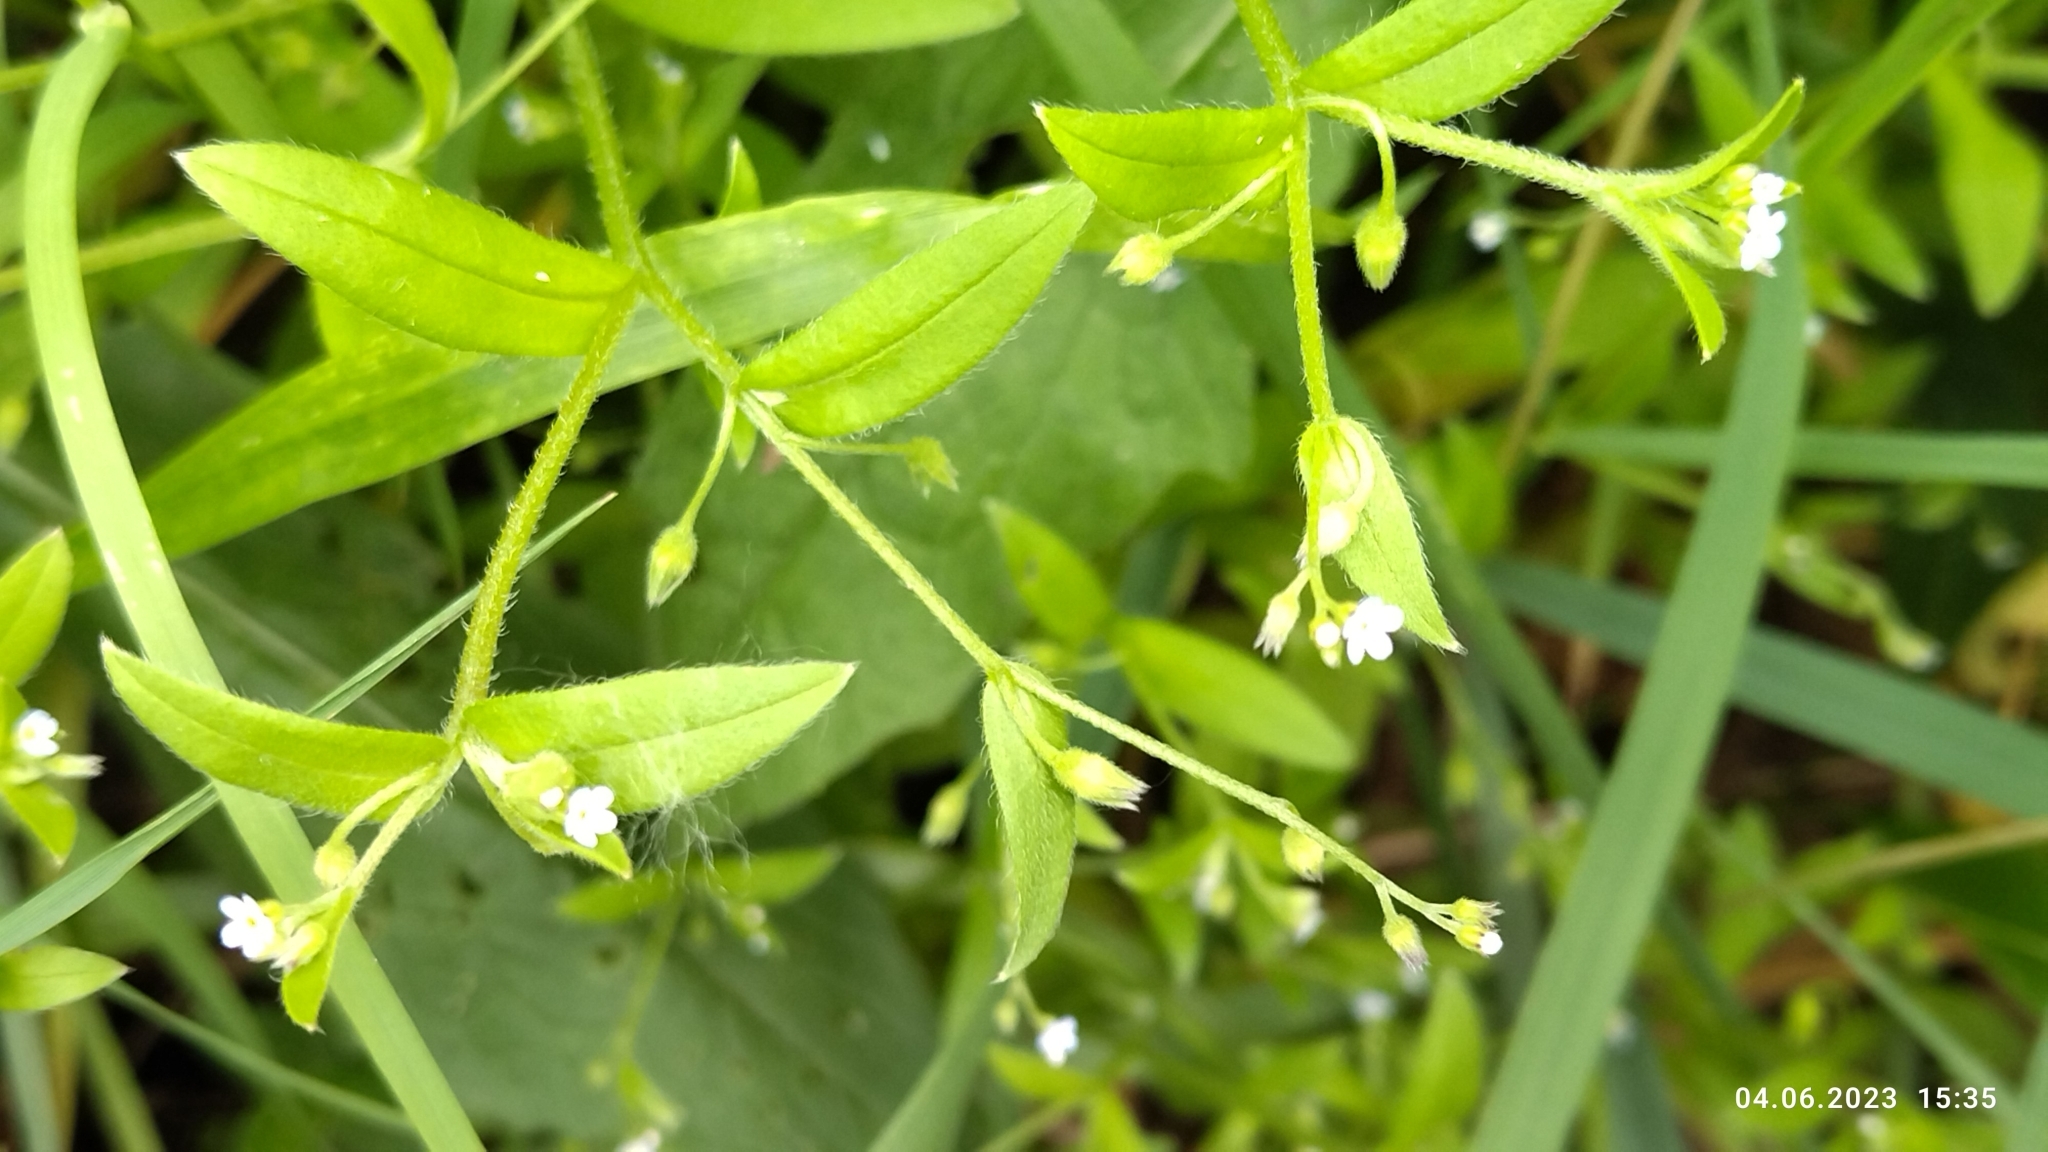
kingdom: Plantae
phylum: Tracheophyta
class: Magnoliopsida
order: Boraginales
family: Boraginaceae
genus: Myosotis
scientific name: Myosotis sparsiflora
